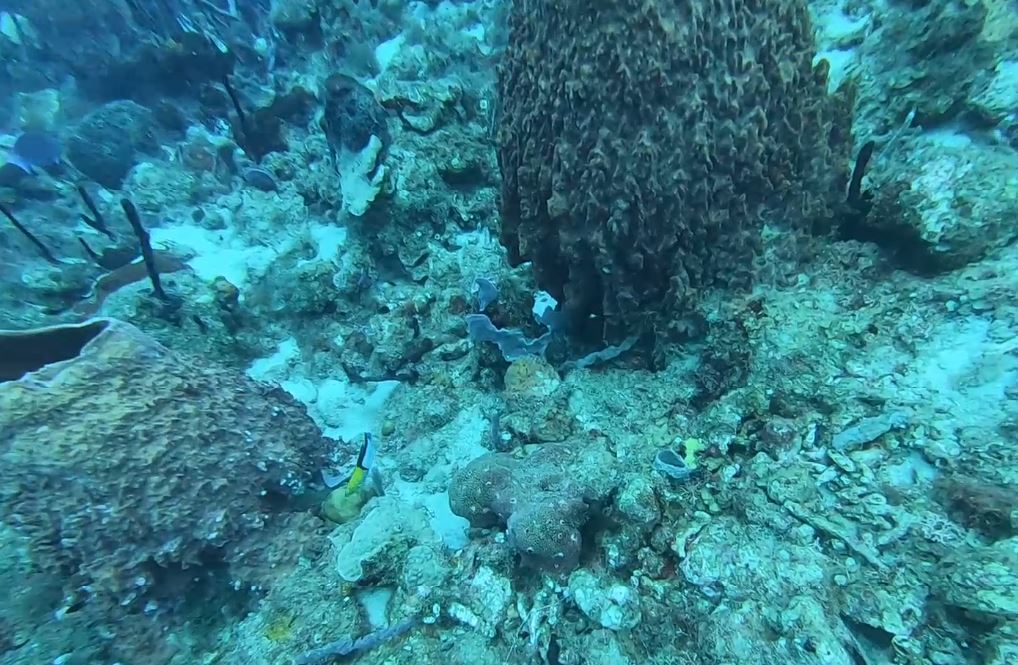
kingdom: Animalia
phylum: Chordata
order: Perciformes
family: Labridae
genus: Halichoeres
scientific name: Halichoeres garnoti
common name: Yellowhead wrasse
